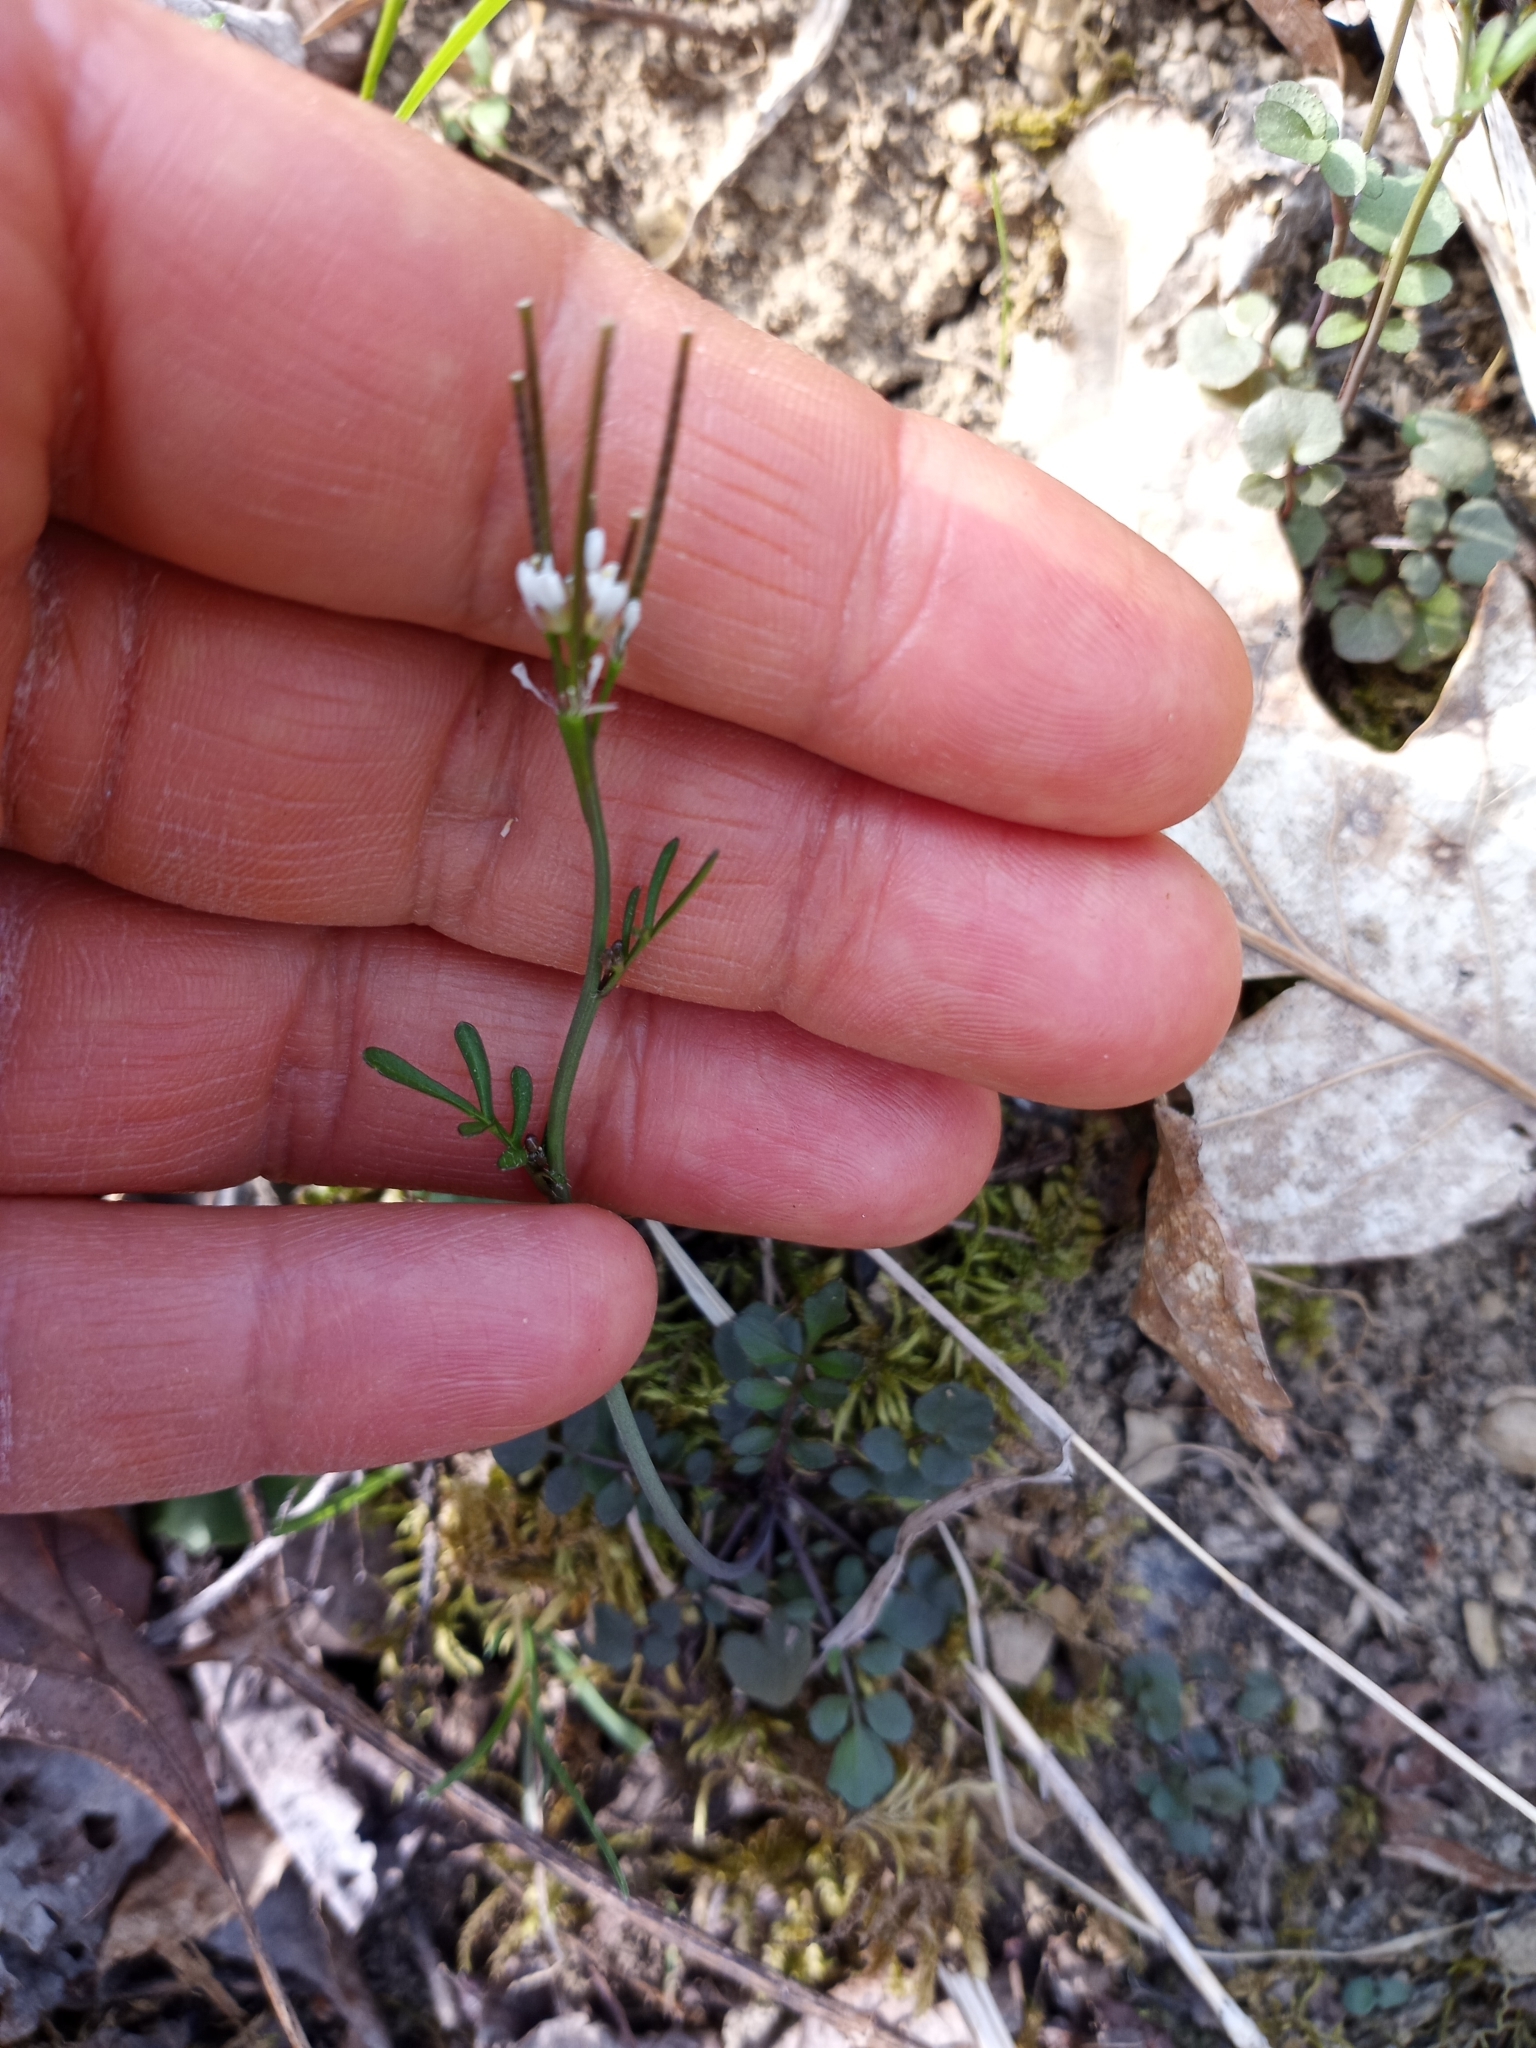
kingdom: Plantae
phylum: Tracheophyta
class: Magnoliopsida
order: Brassicales
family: Brassicaceae
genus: Cardamine
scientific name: Cardamine hirsuta
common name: Hairy bittercress
